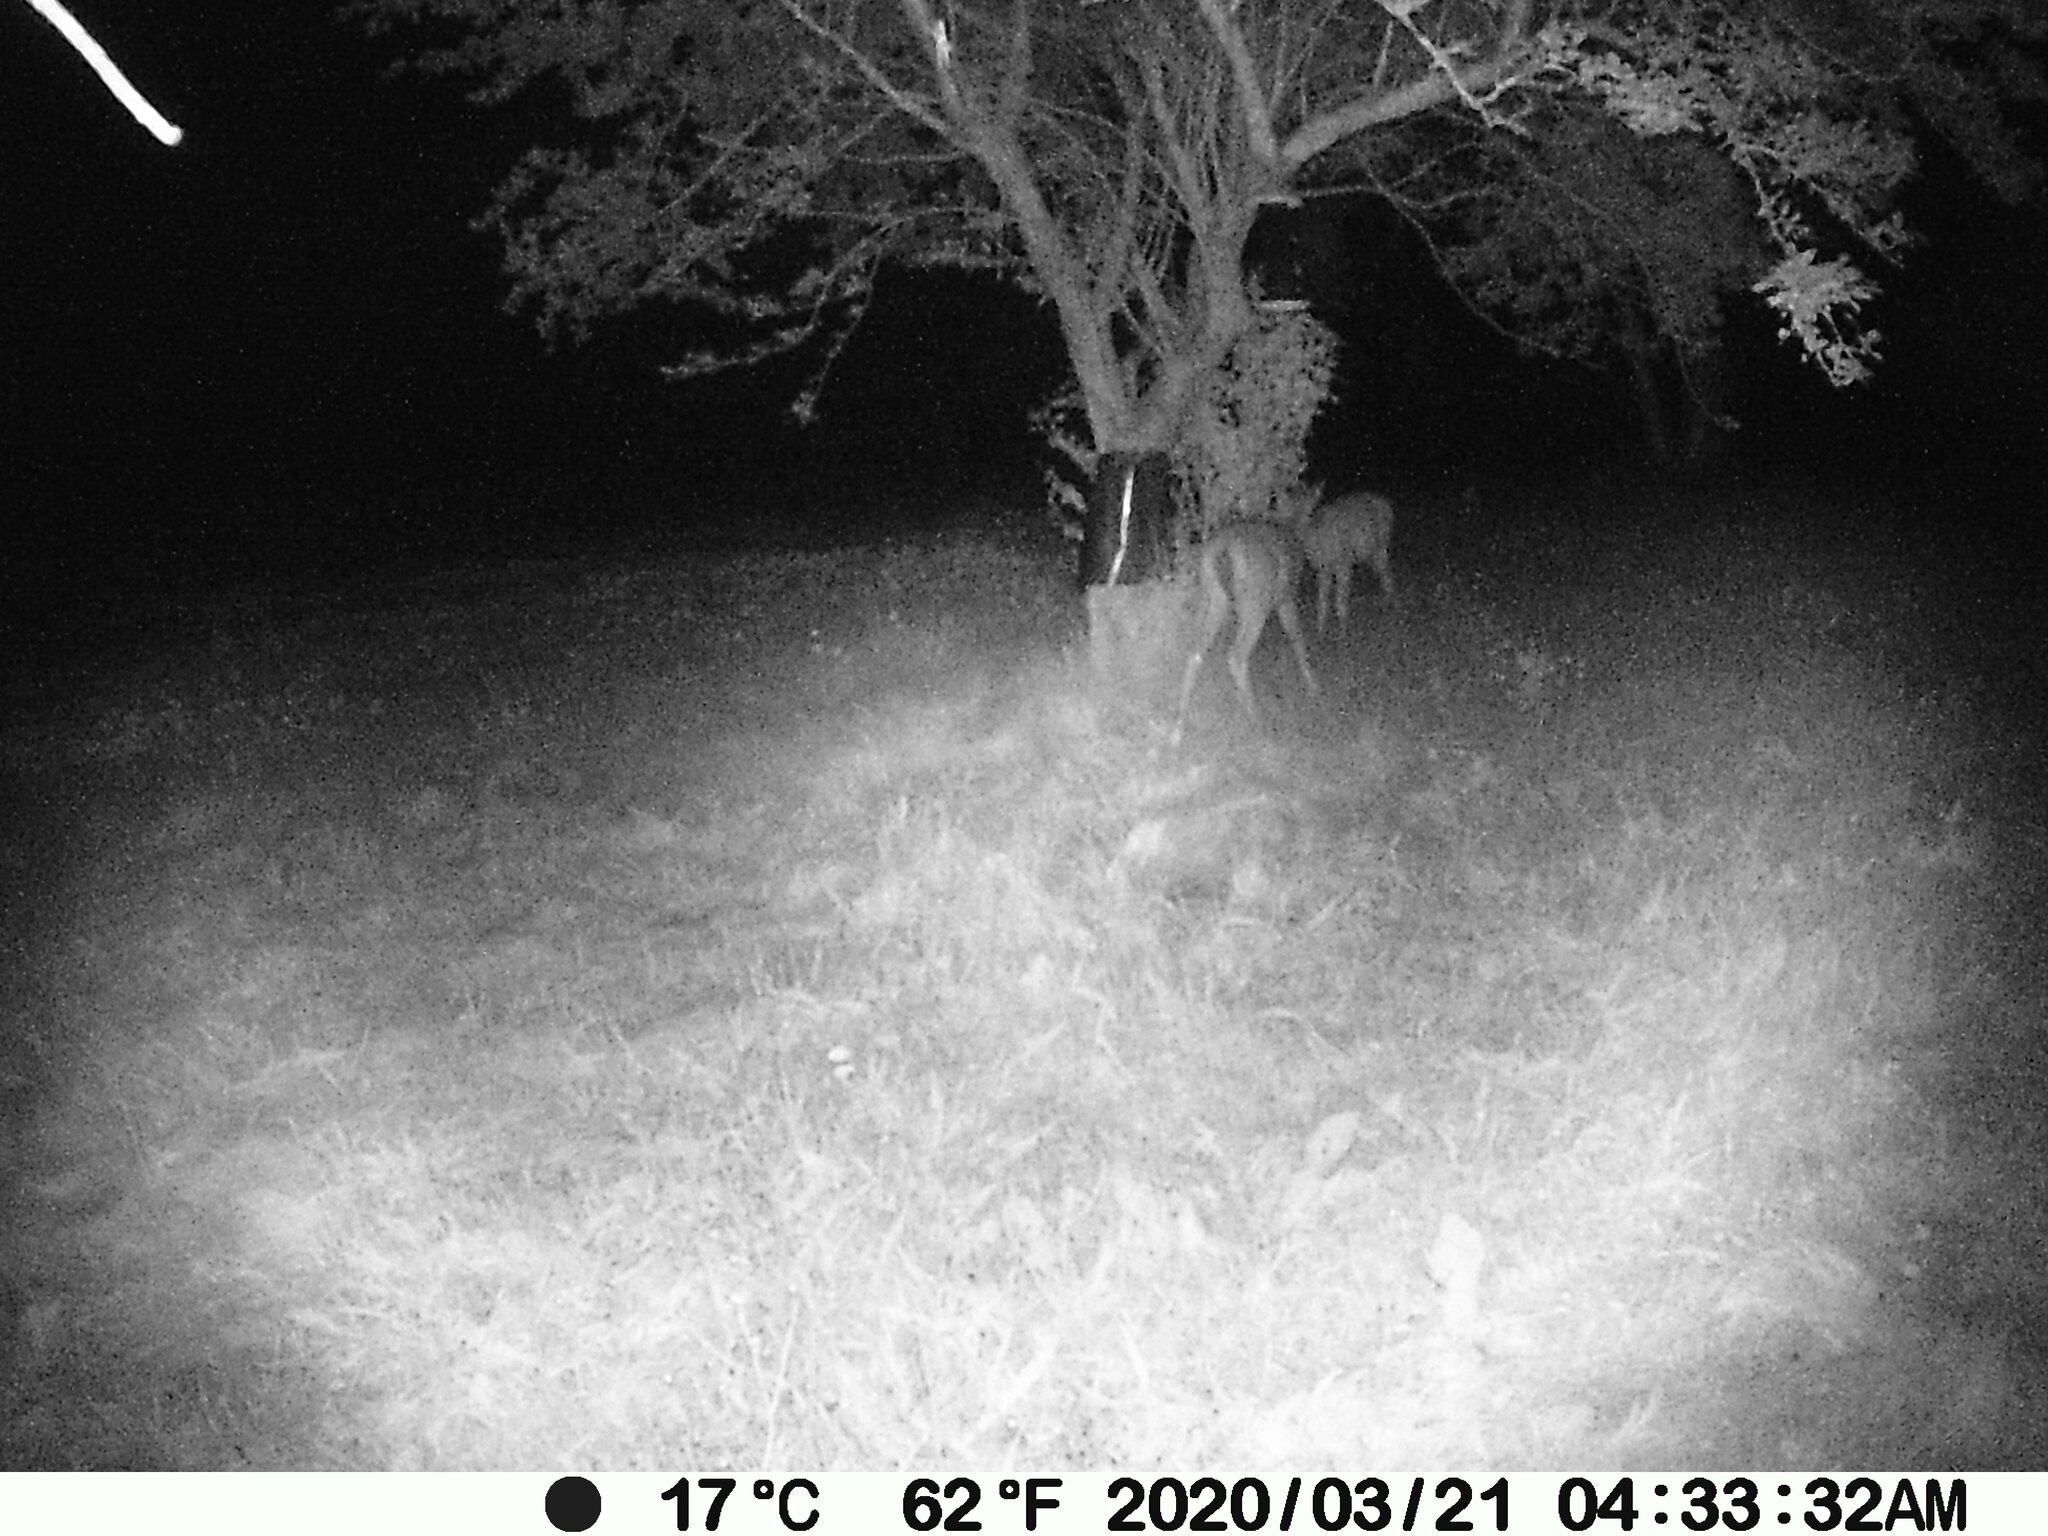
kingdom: Animalia
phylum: Chordata
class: Mammalia
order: Artiodactyla
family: Cervidae
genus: Odocoileus
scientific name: Odocoileus virginianus
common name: White-tailed deer
